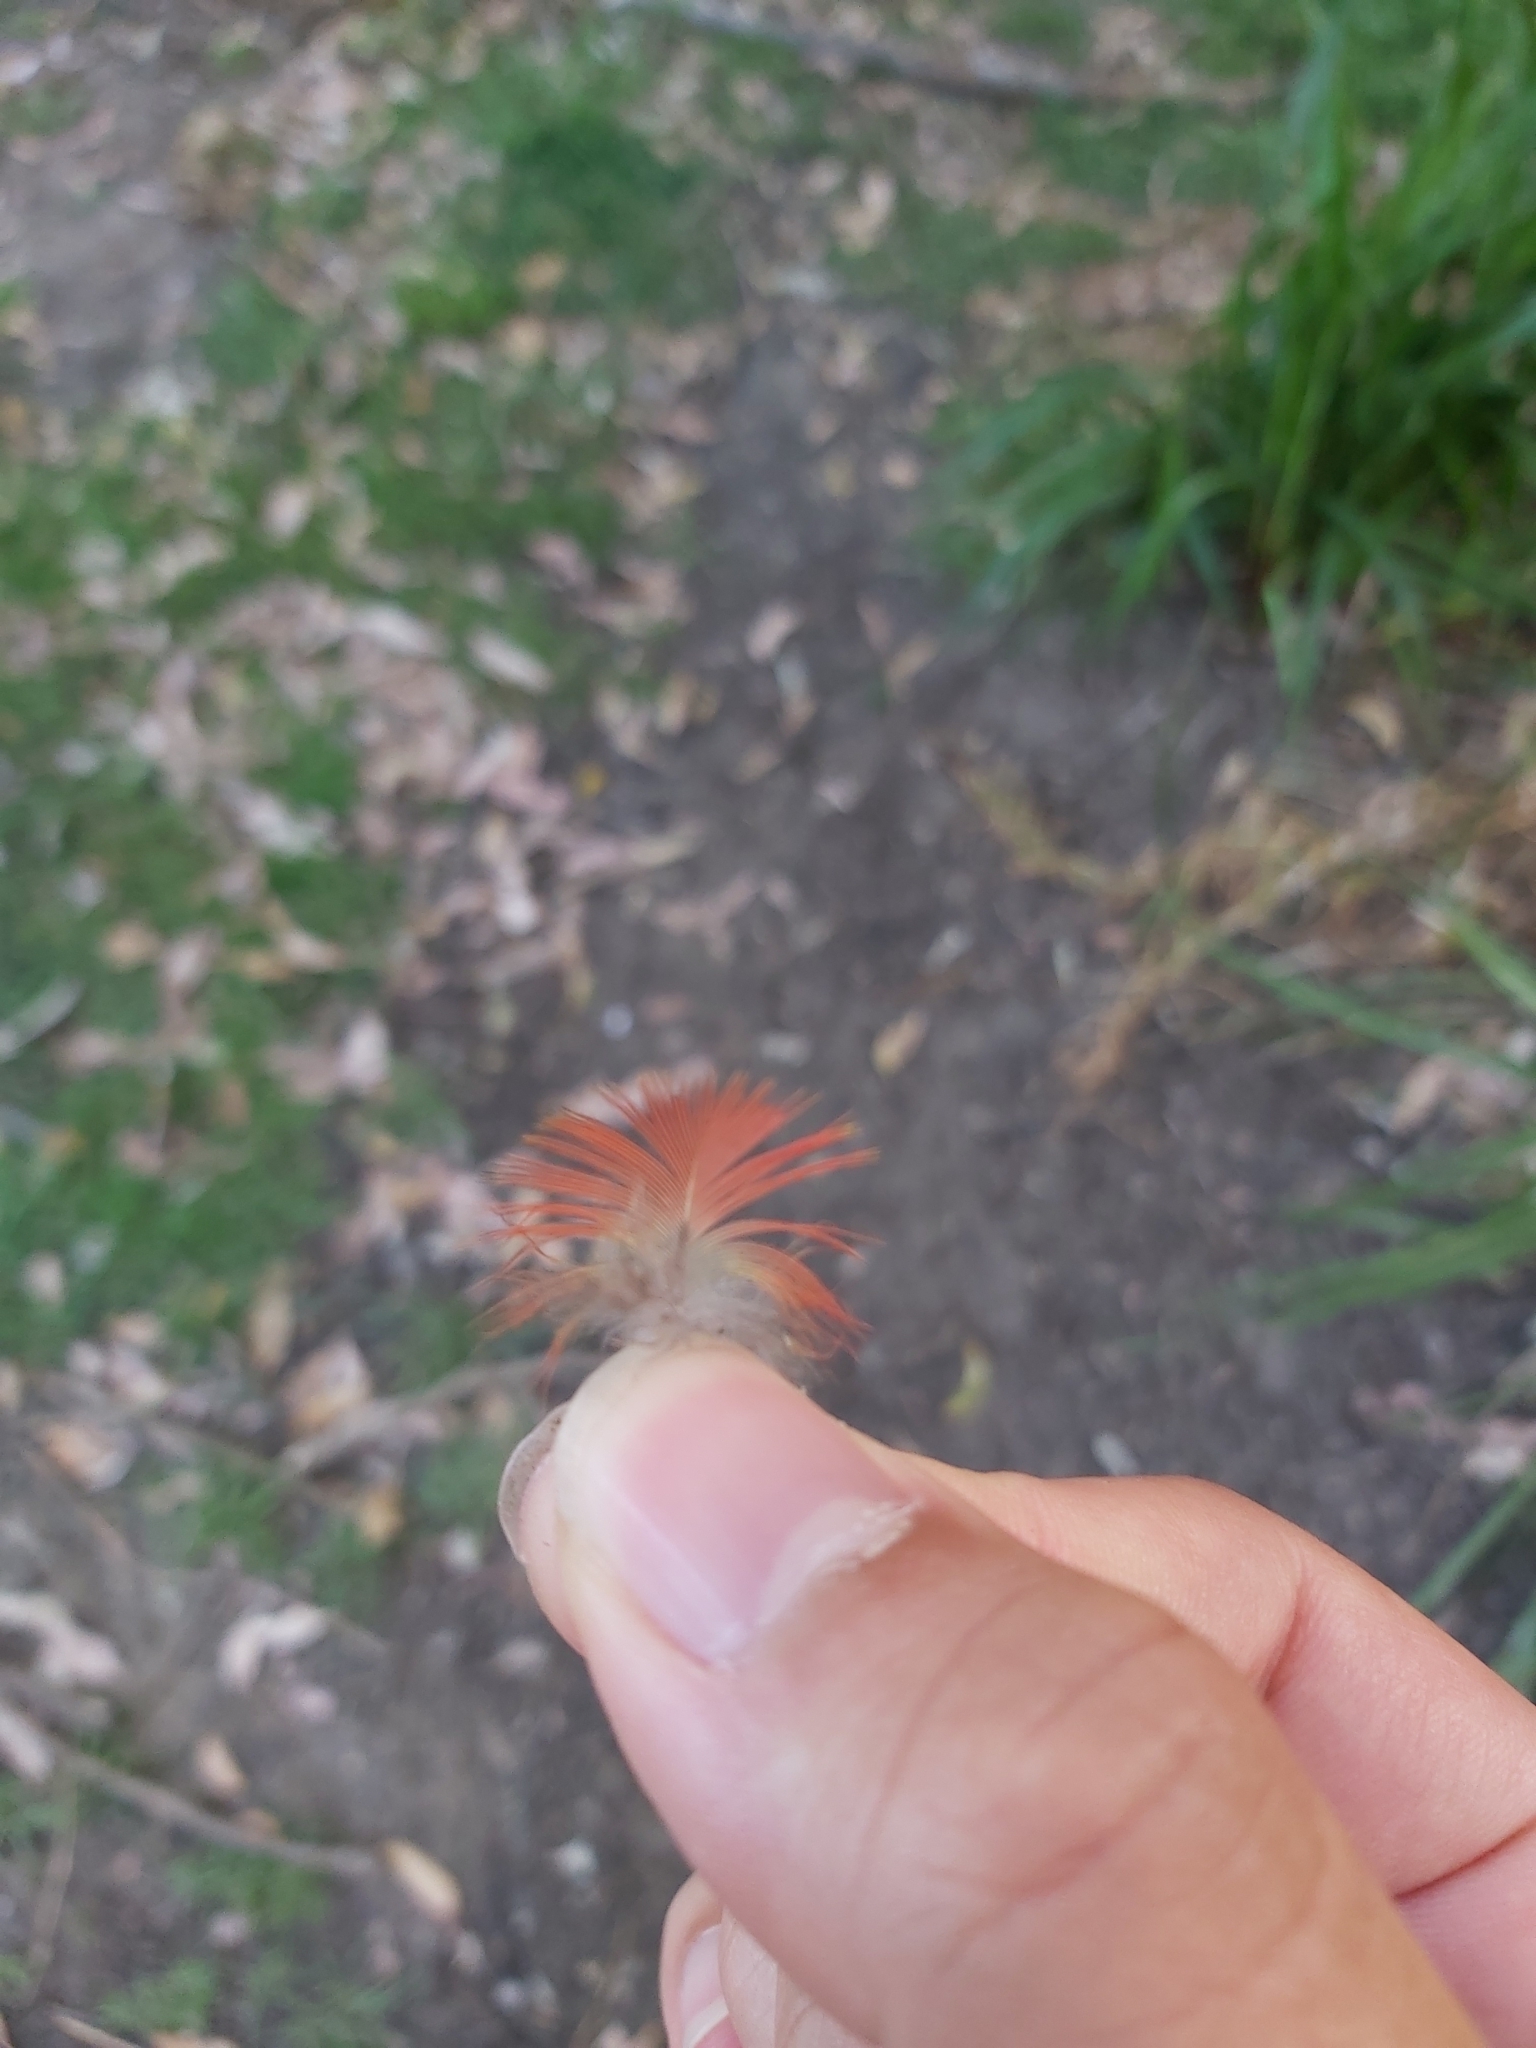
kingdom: Animalia
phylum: Chordata
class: Aves
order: Psittaciformes
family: Psittacidae
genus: Trichoglossus
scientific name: Trichoglossus haematodus
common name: Coconut lorikeet
